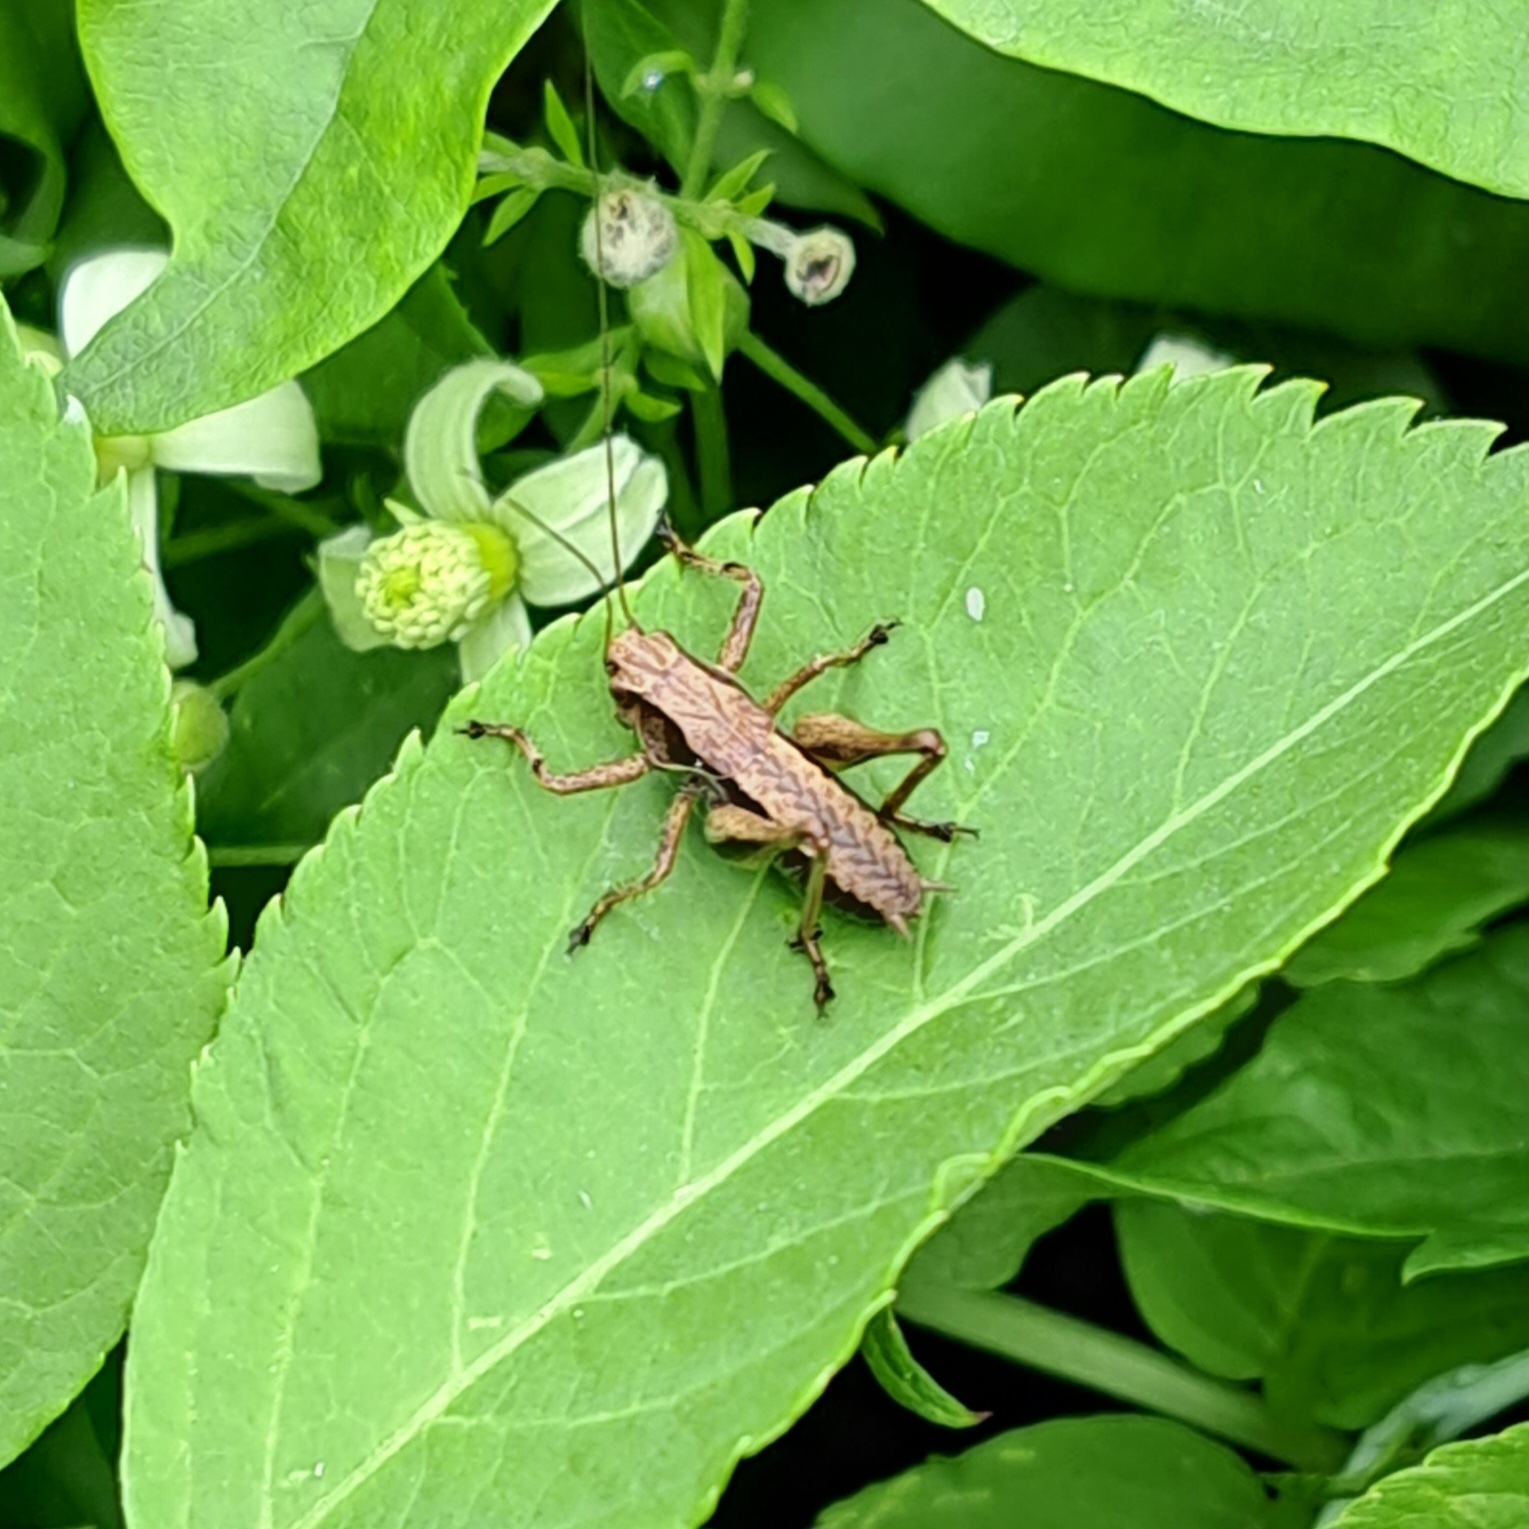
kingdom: Animalia
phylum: Arthropoda
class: Insecta
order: Orthoptera
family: Tettigoniidae
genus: Pholidoptera
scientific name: Pholidoptera griseoaptera
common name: Dark bush-cricket
